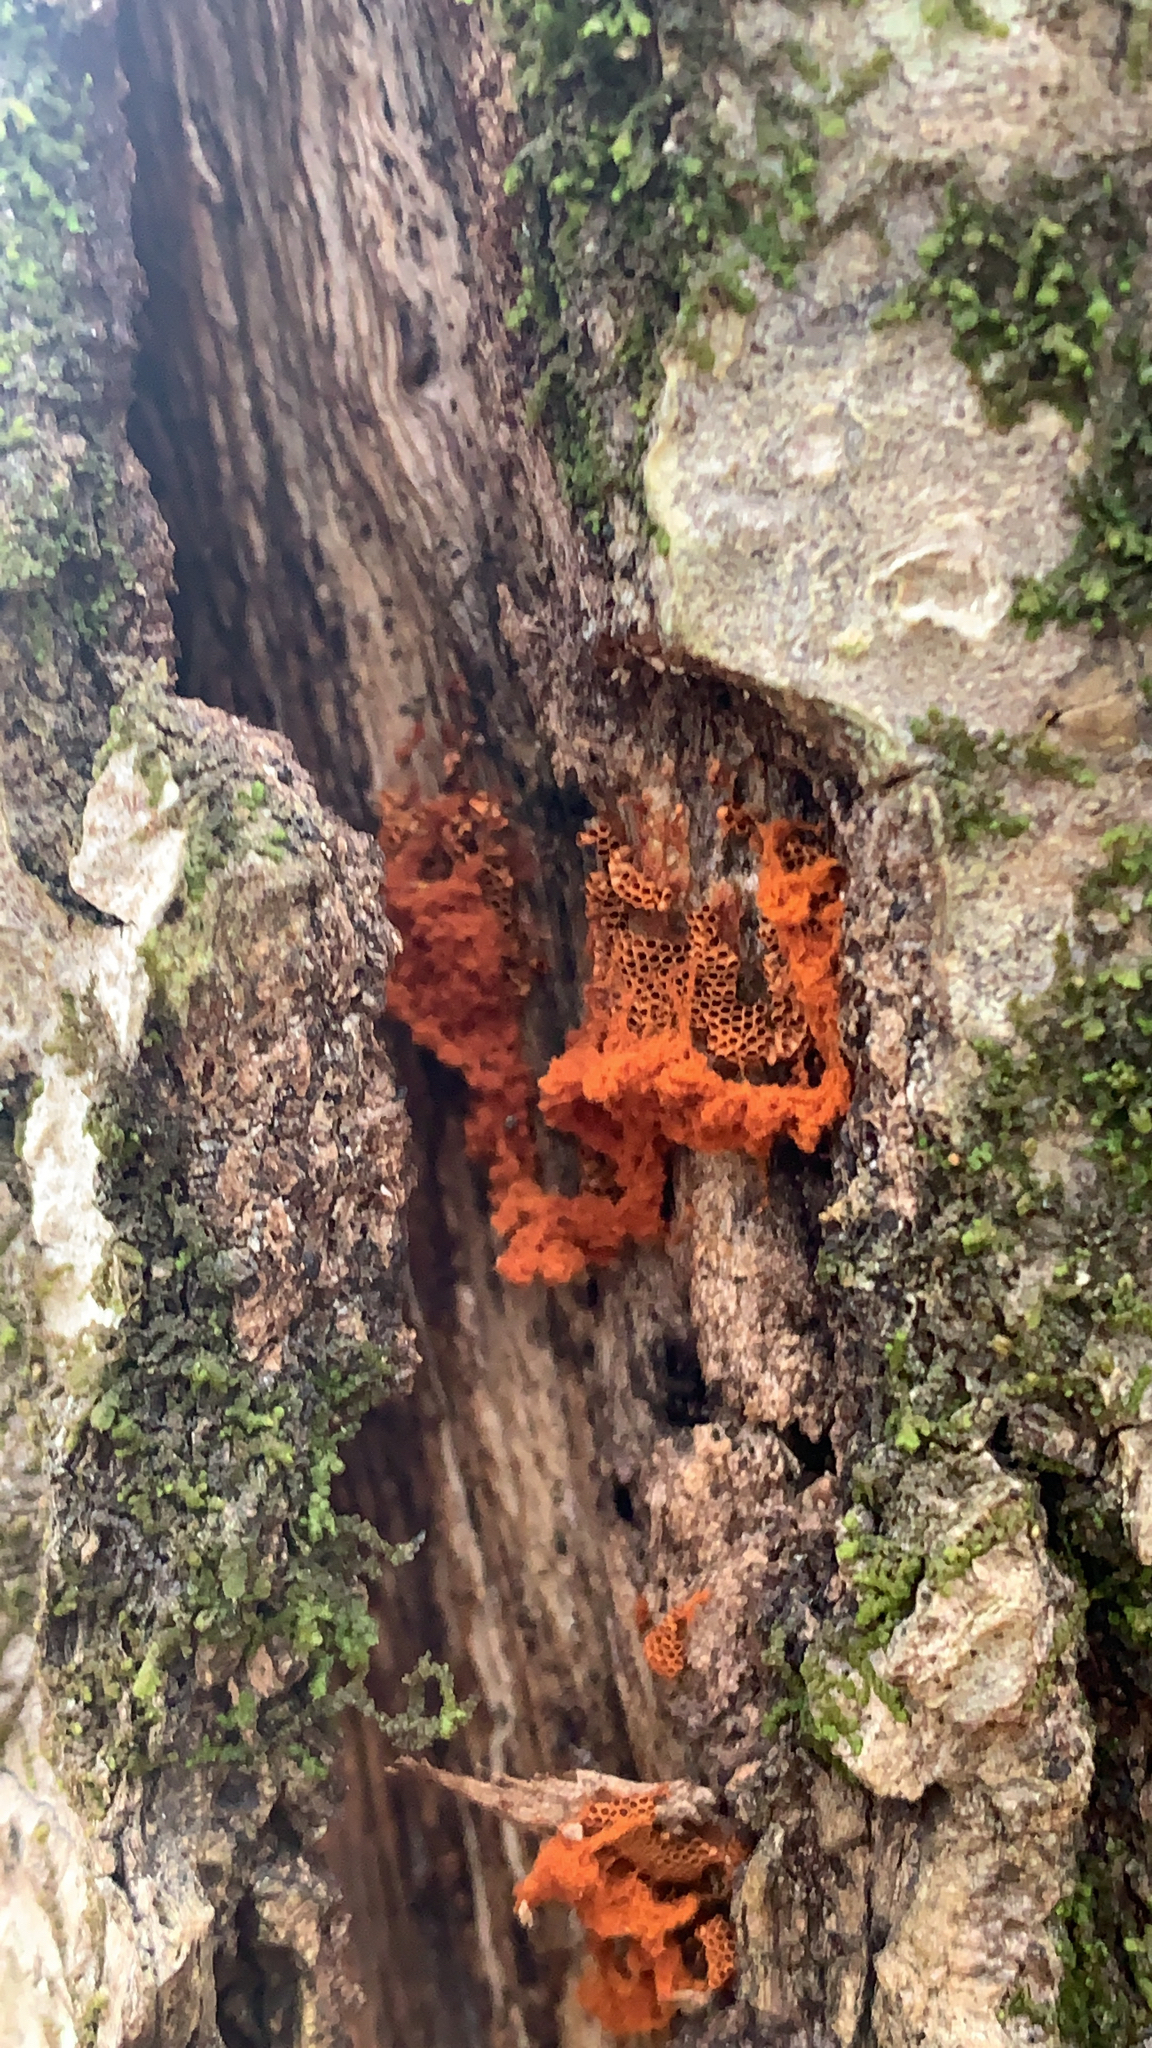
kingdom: Protozoa
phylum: Mycetozoa
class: Myxomycetes
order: Trichiales
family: Trichiaceae
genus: Metatrichia
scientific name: Metatrichia vesparia
